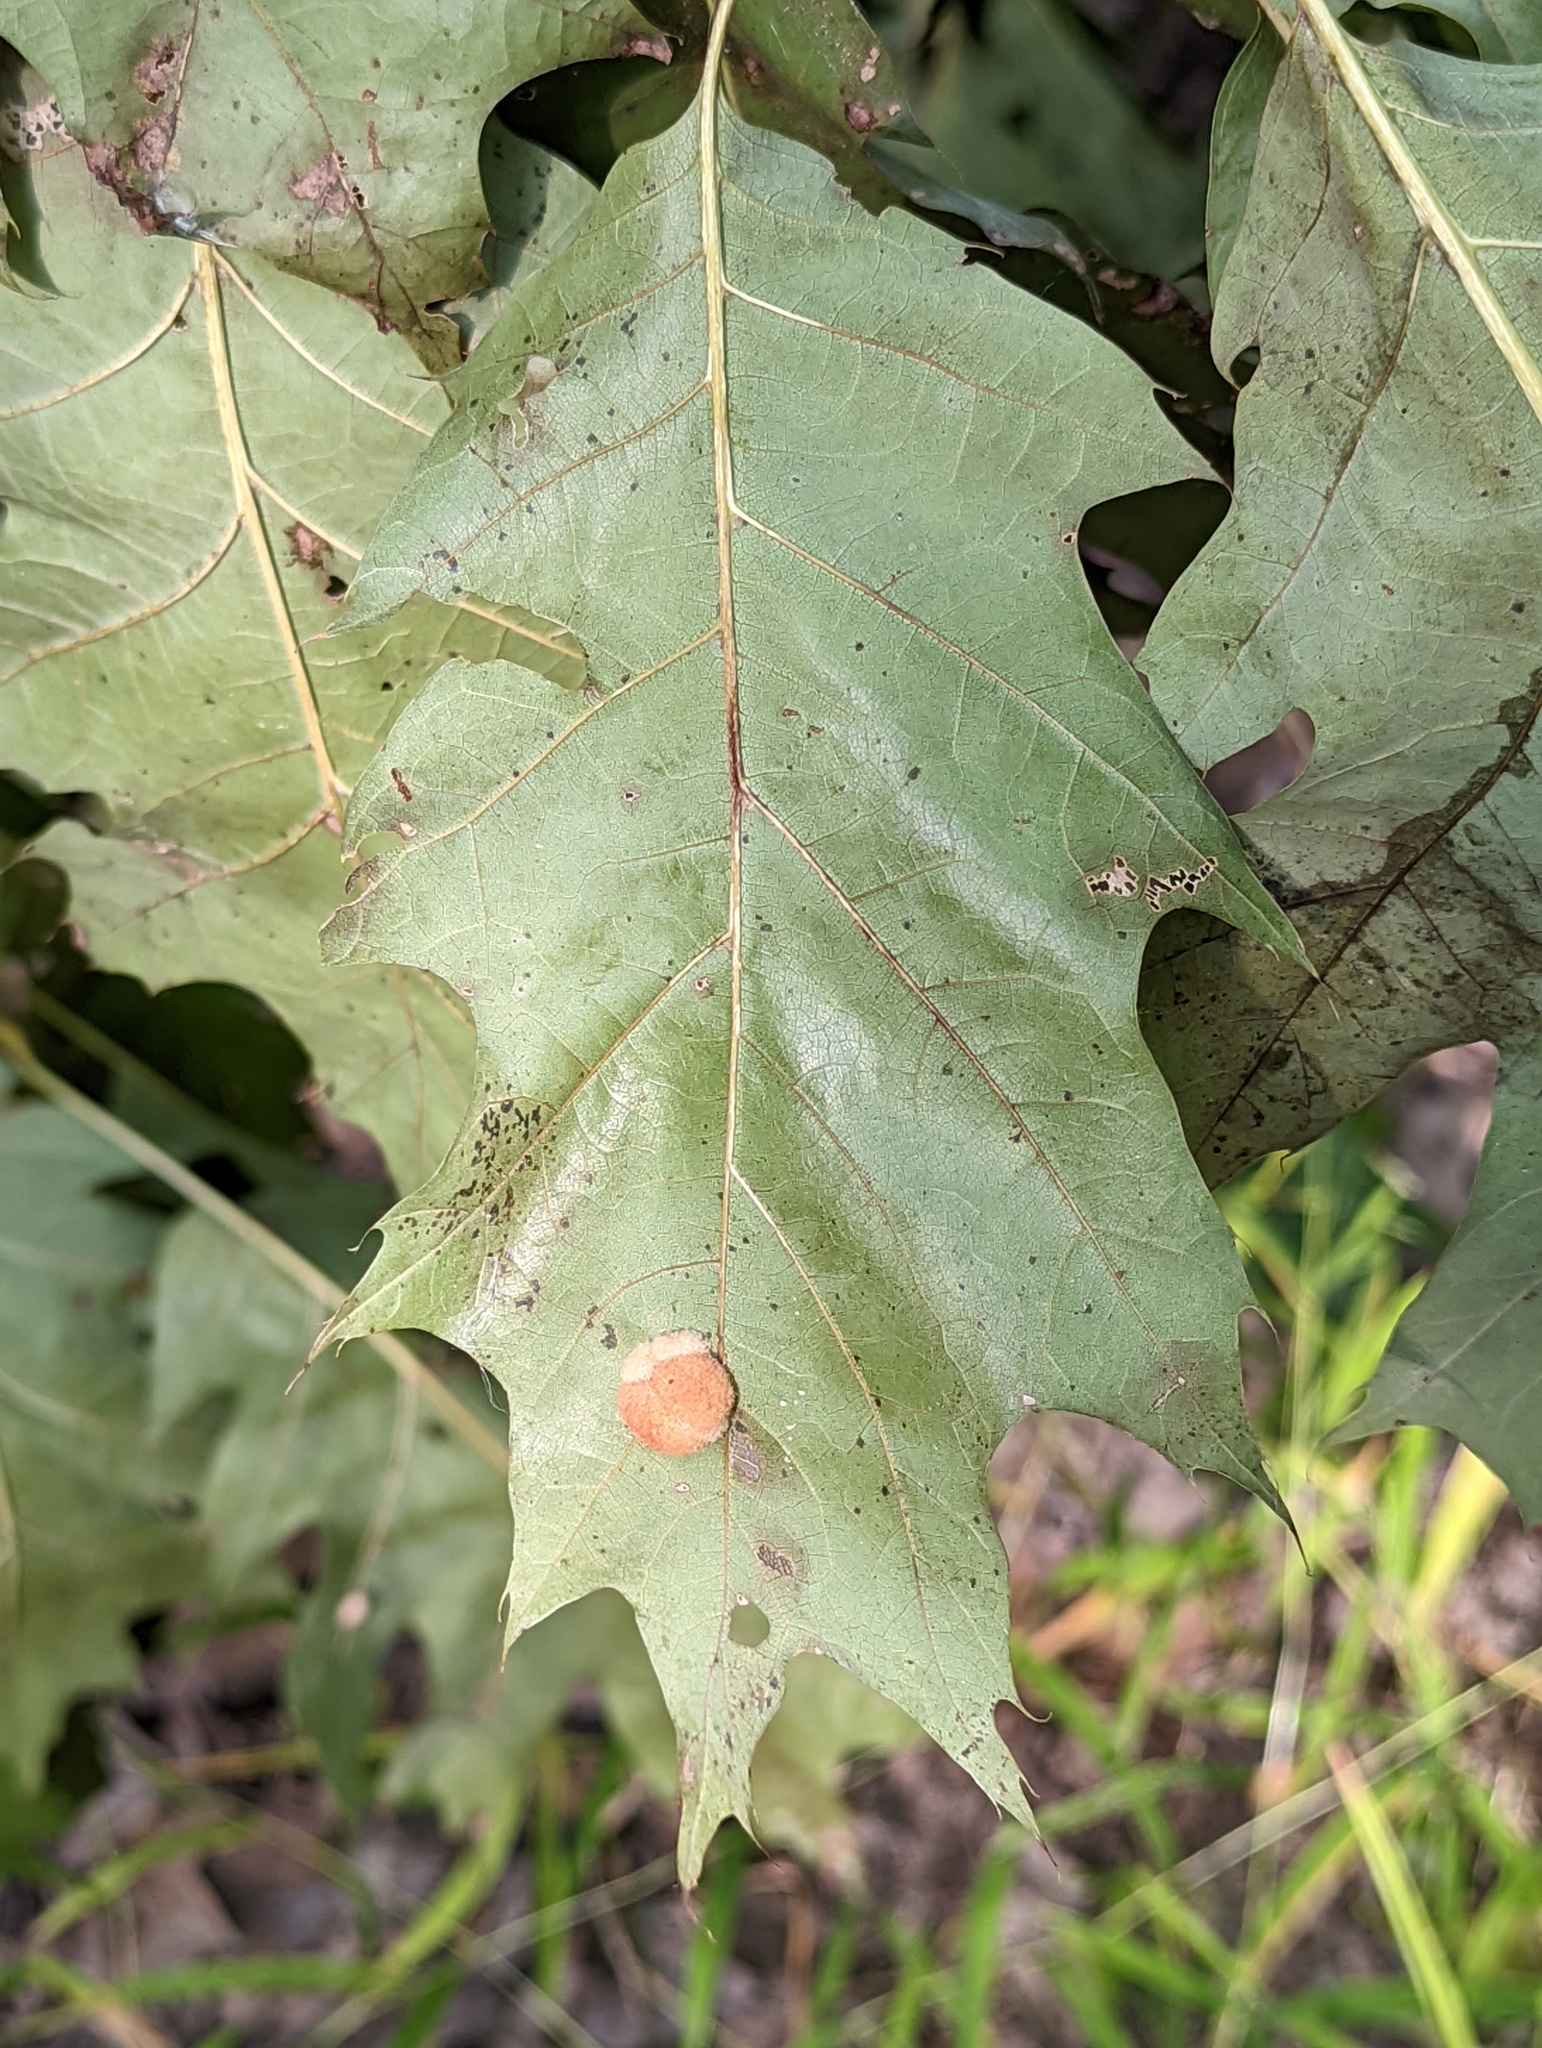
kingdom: Animalia
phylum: Arthropoda
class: Insecta
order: Hymenoptera
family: Cynipidae
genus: Callirhytis
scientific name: Callirhytis
